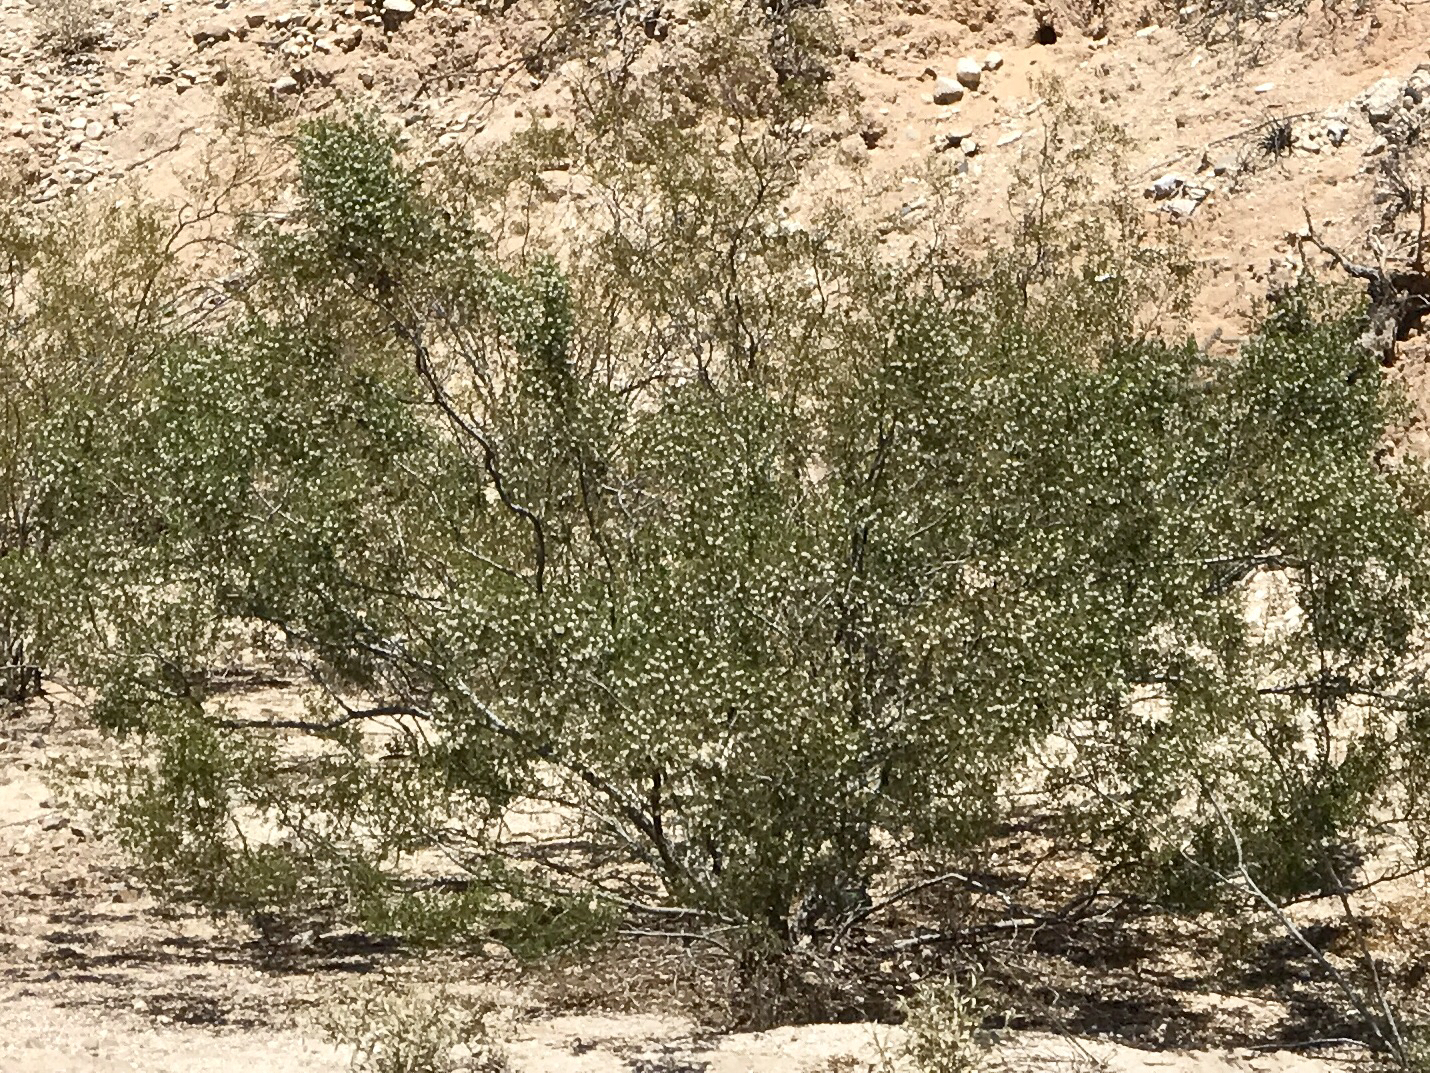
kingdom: Plantae
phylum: Tracheophyta
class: Magnoliopsida
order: Zygophyllales
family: Zygophyllaceae
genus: Larrea
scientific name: Larrea tridentata
